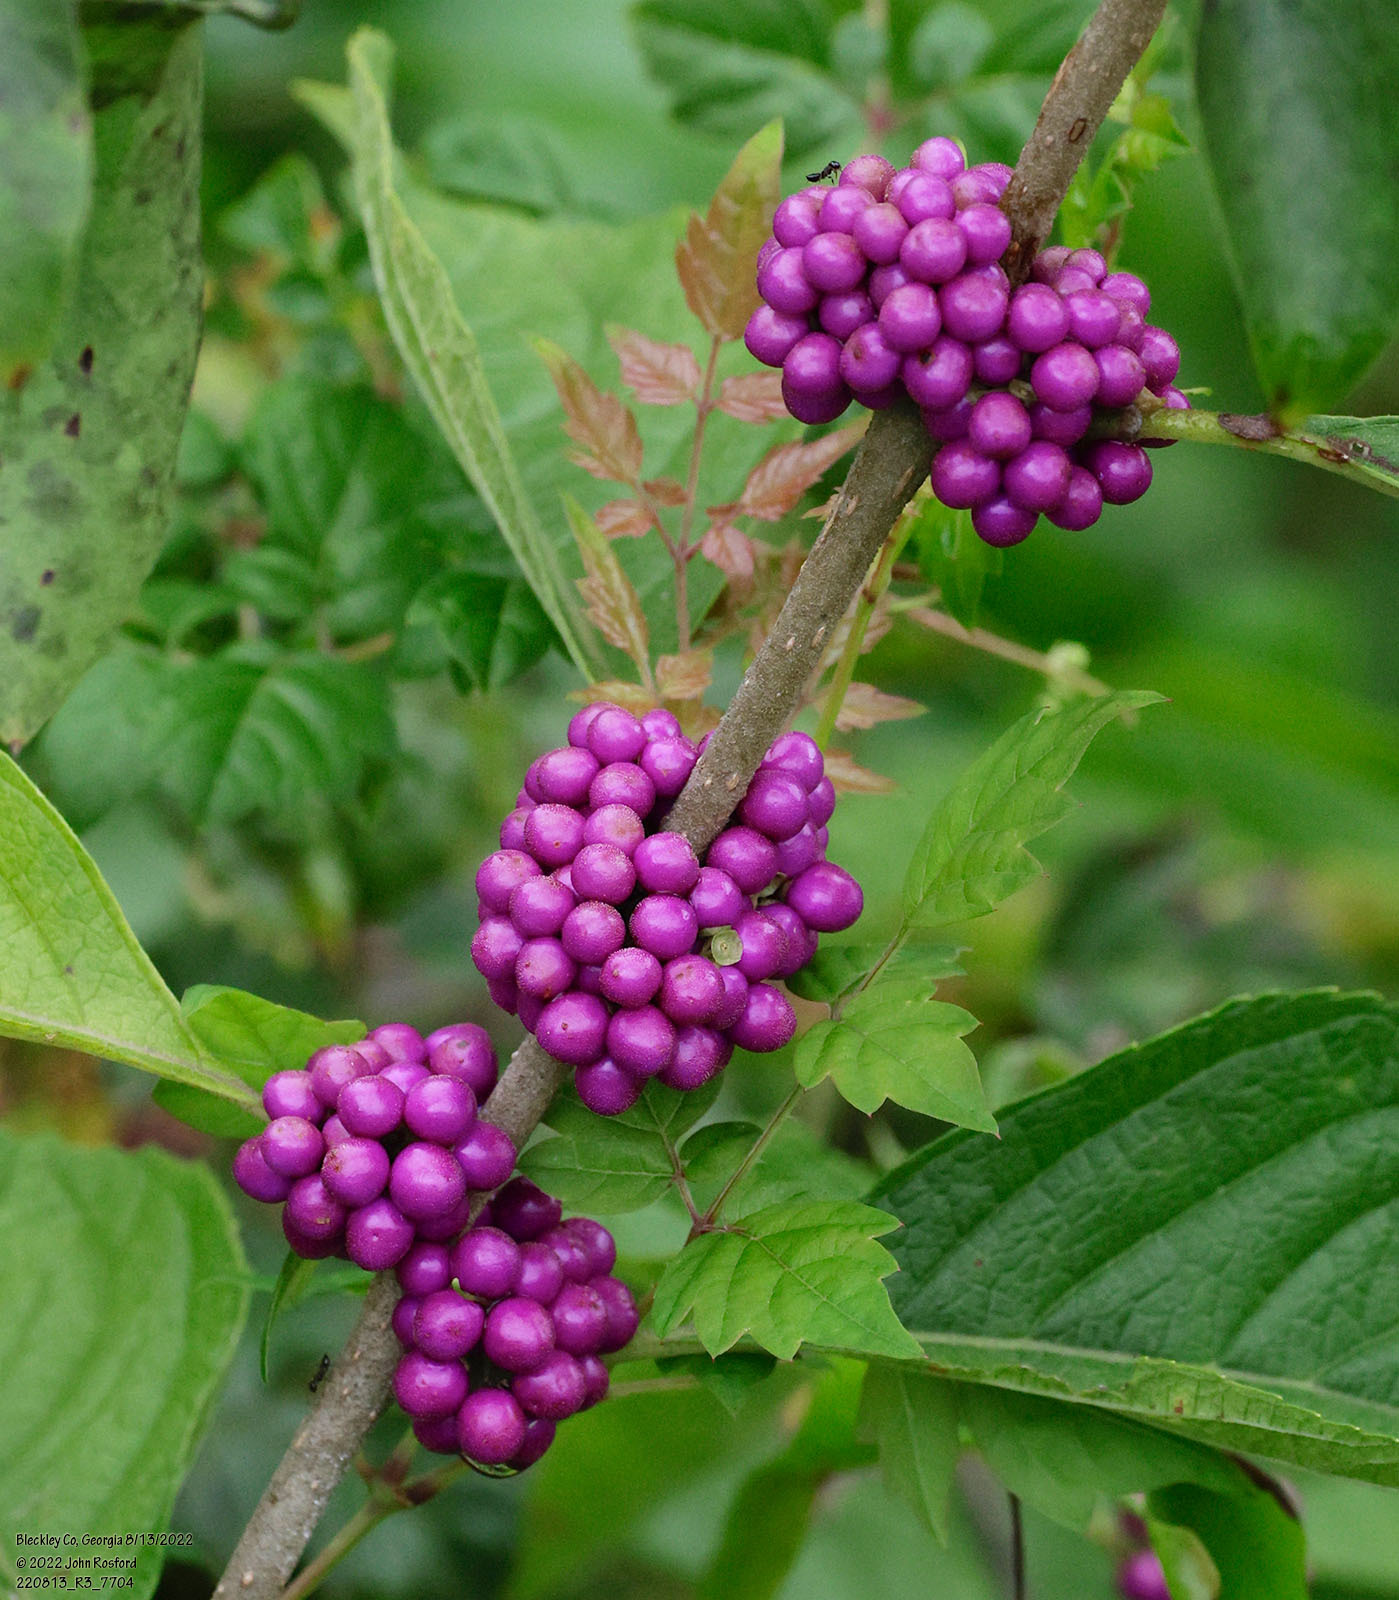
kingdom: Plantae
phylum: Tracheophyta
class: Magnoliopsida
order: Lamiales
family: Lamiaceae
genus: Callicarpa
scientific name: Callicarpa americana
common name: American beautyberry
